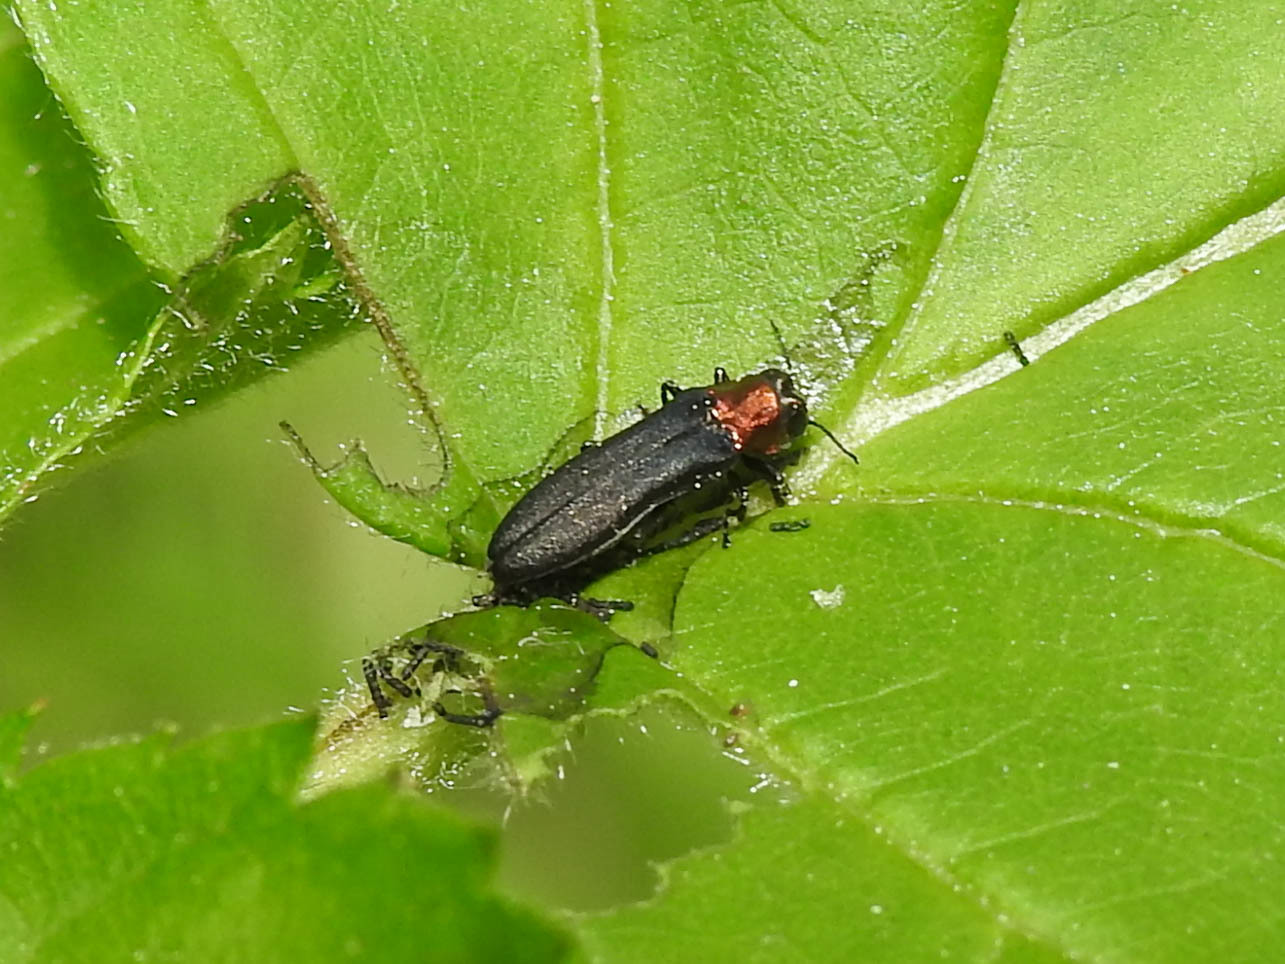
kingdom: Animalia
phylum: Arthropoda
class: Insecta
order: Coleoptera
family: Buprestidae
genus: Agrilus
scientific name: Agrilus ruficollis
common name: Red-necked cane borer beetle
